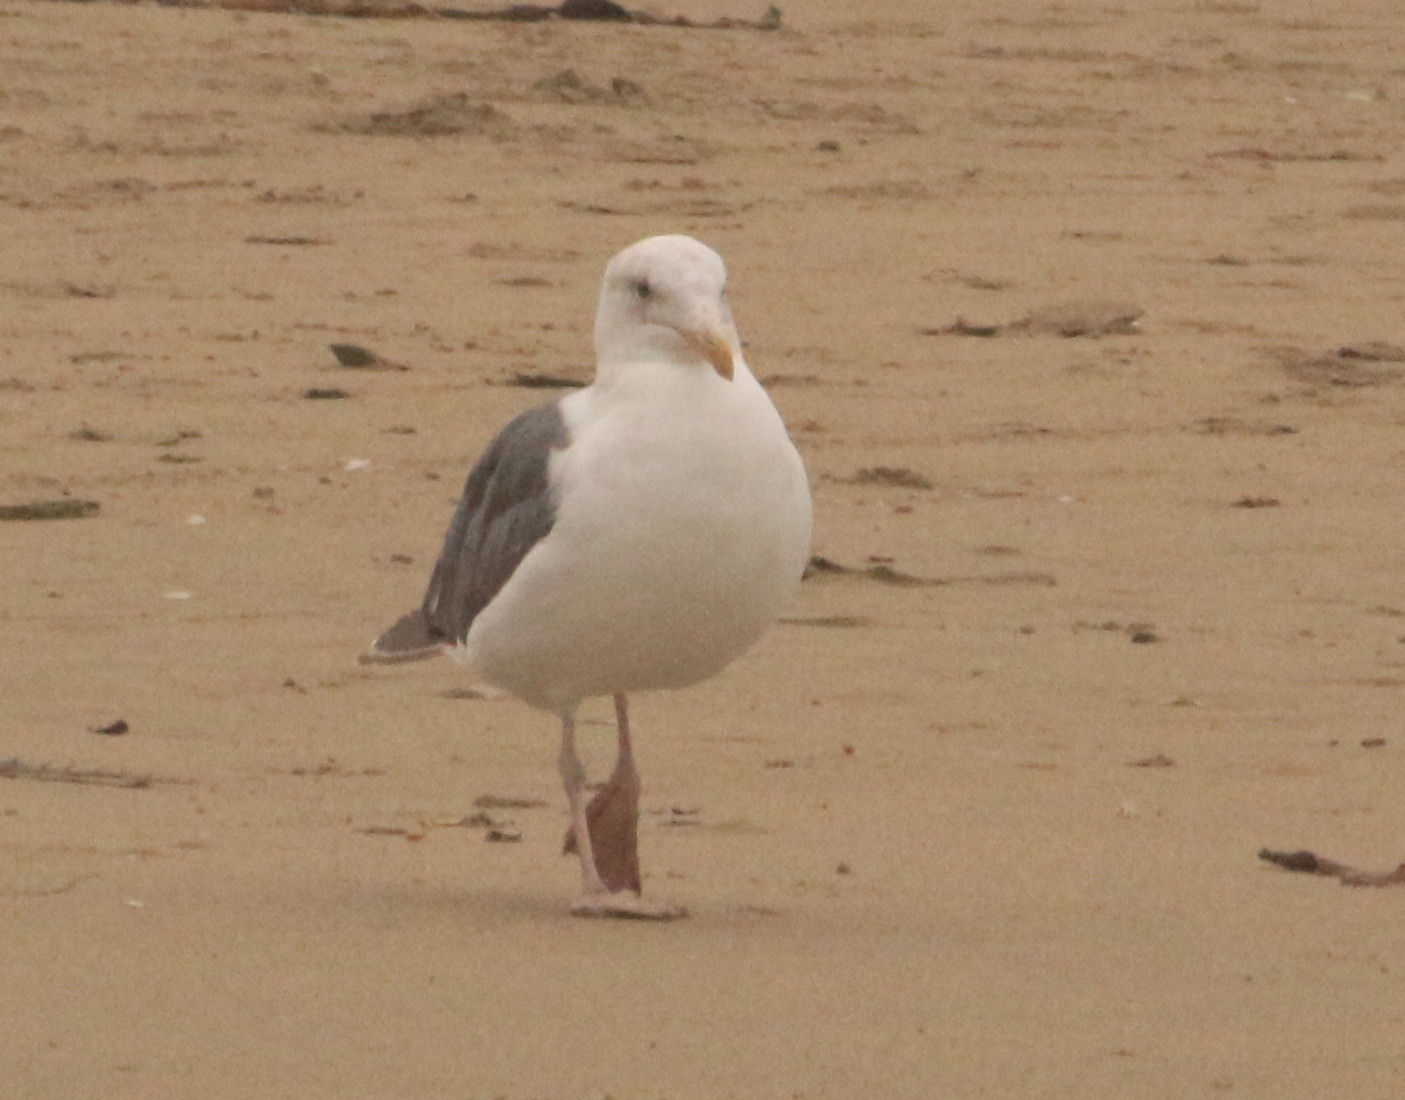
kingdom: Animalia
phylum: Chordata
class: Aves
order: Charadriiformes
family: Laridae
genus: Larus
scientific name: Larus occidentalis
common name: Western gull
